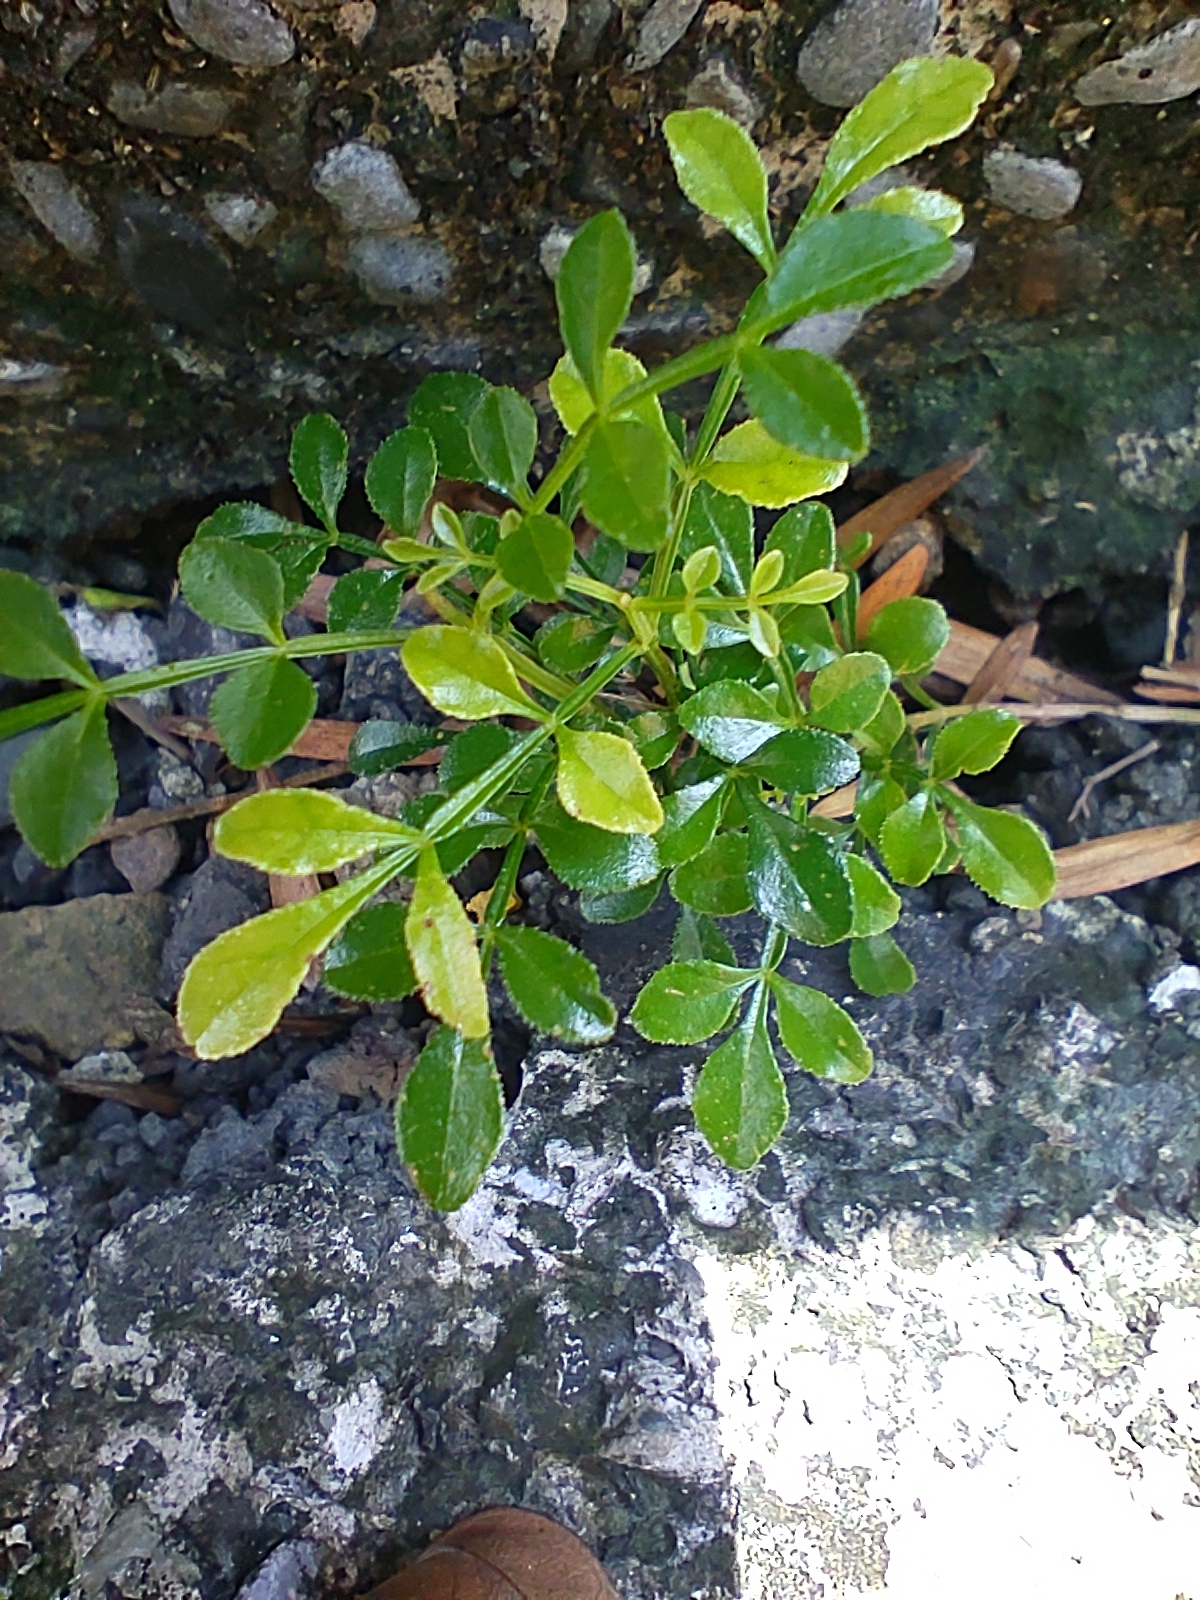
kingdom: Plantae
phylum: Tracheophyta
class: Magnoliopsida
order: Lamiales
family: Oleaceae
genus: Fraxinus
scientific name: Fraxinus griffithii
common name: Himalayan ash
